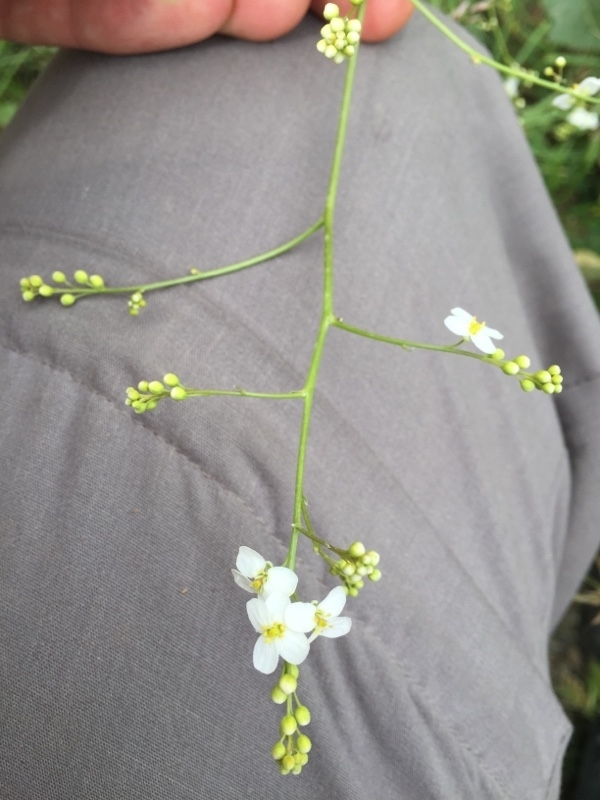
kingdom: Plantae
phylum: Tracheophyta
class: Magnoliopsida
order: Brassicales
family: Brassicaceae
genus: Crambe
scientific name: Crambe orientalis
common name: Oriental sea-kale
